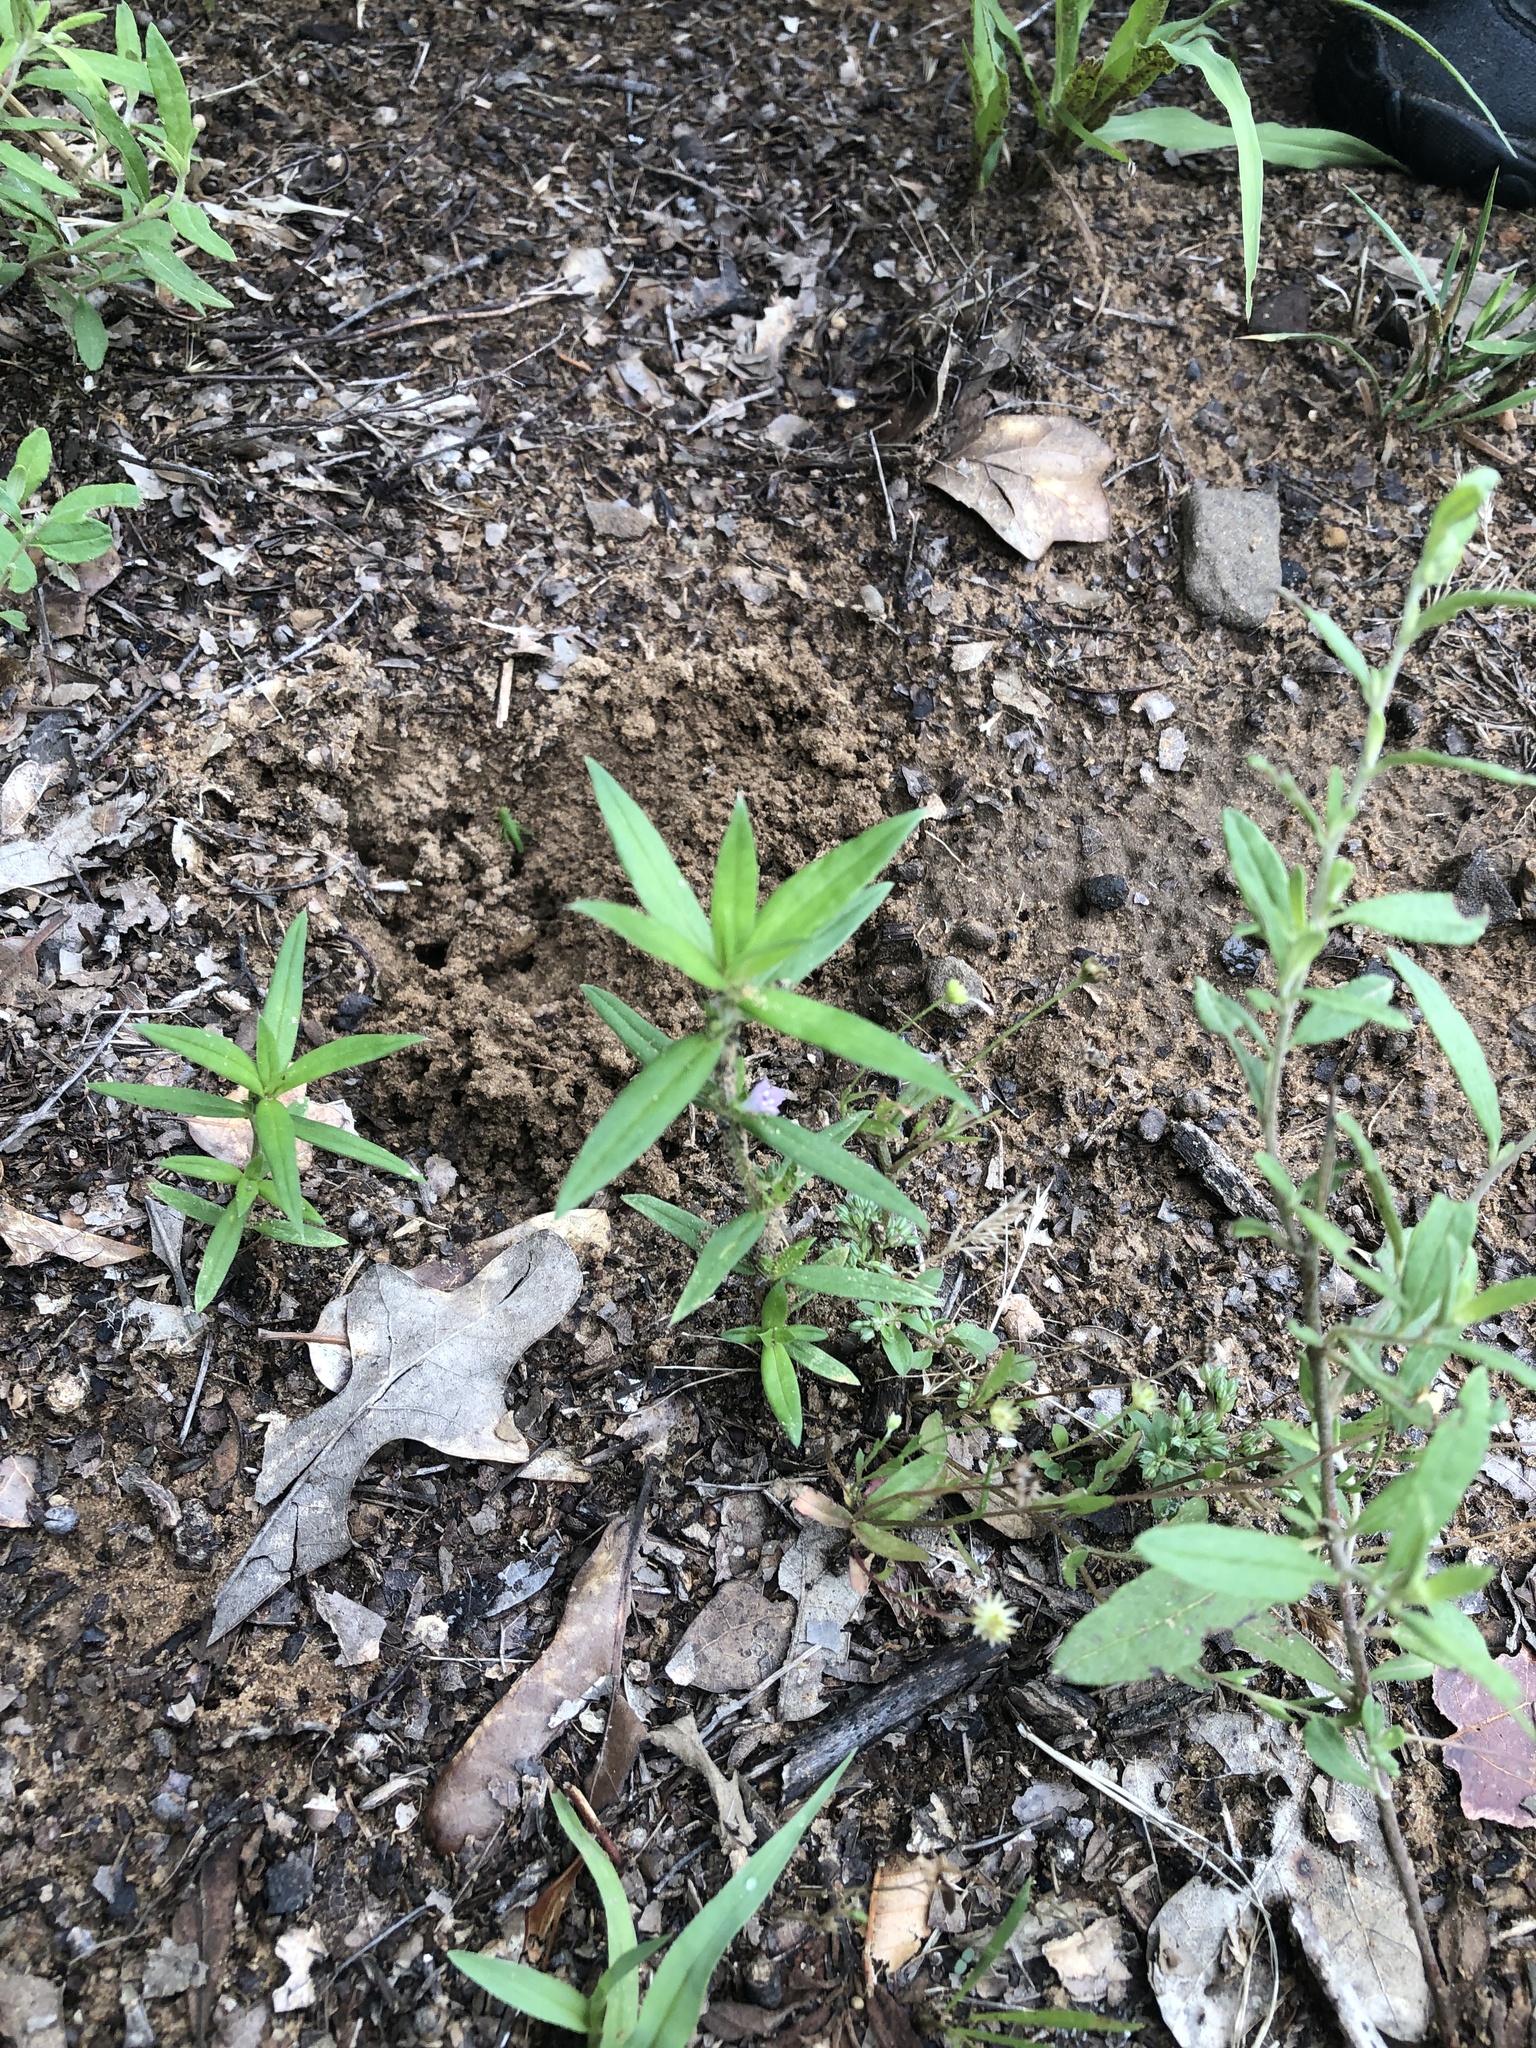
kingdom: Plantae
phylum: Tracheophyta
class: Magnoliopsida
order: Gentianales
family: Rubiaceae
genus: Hexasepalum
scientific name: Hexasepalum teres
